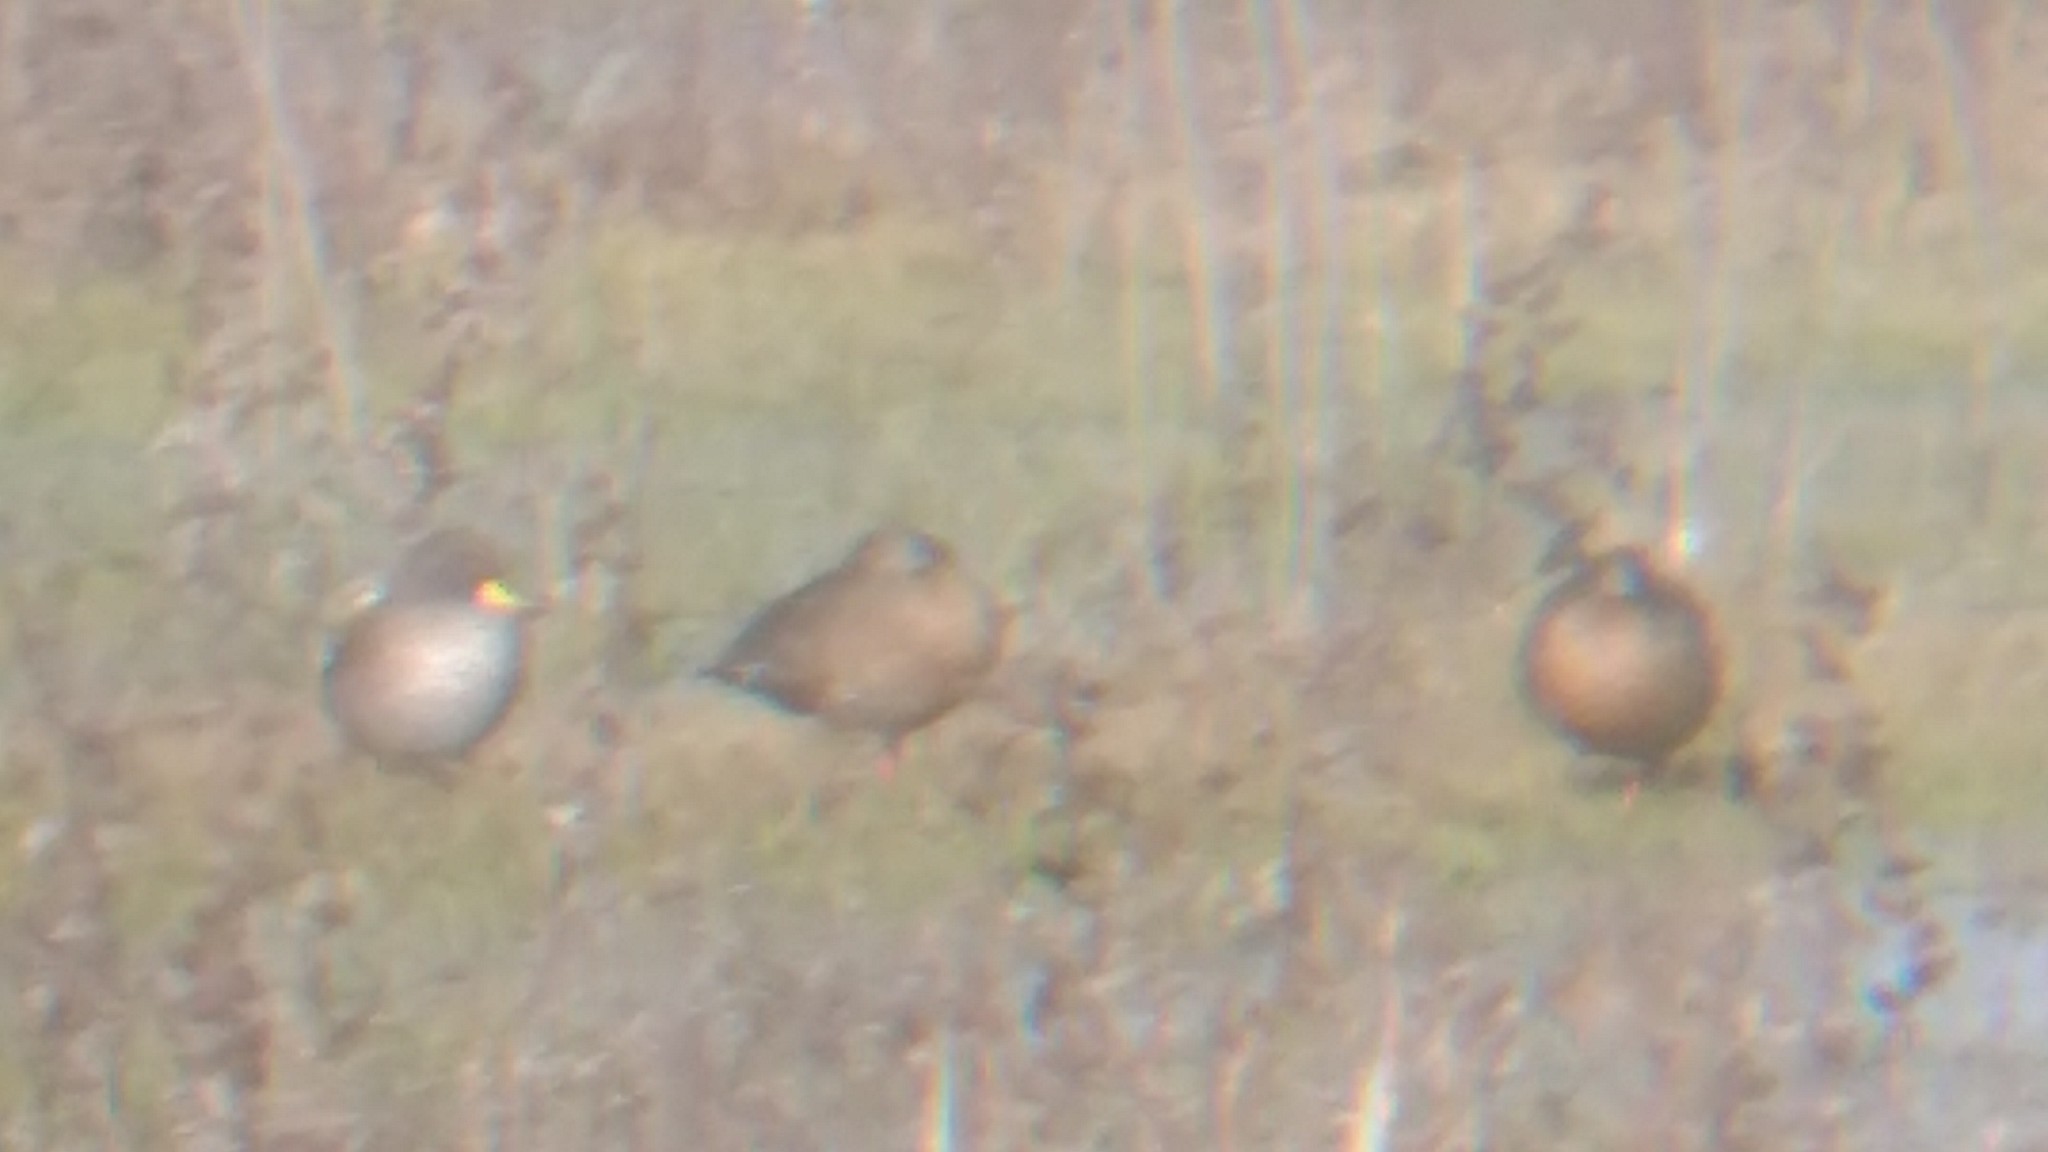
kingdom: Animalia
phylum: Chordata
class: Aves
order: Anseriformes
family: Anatidae
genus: Anas
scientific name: Anas flavirostris
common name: Yellow-billed teal
